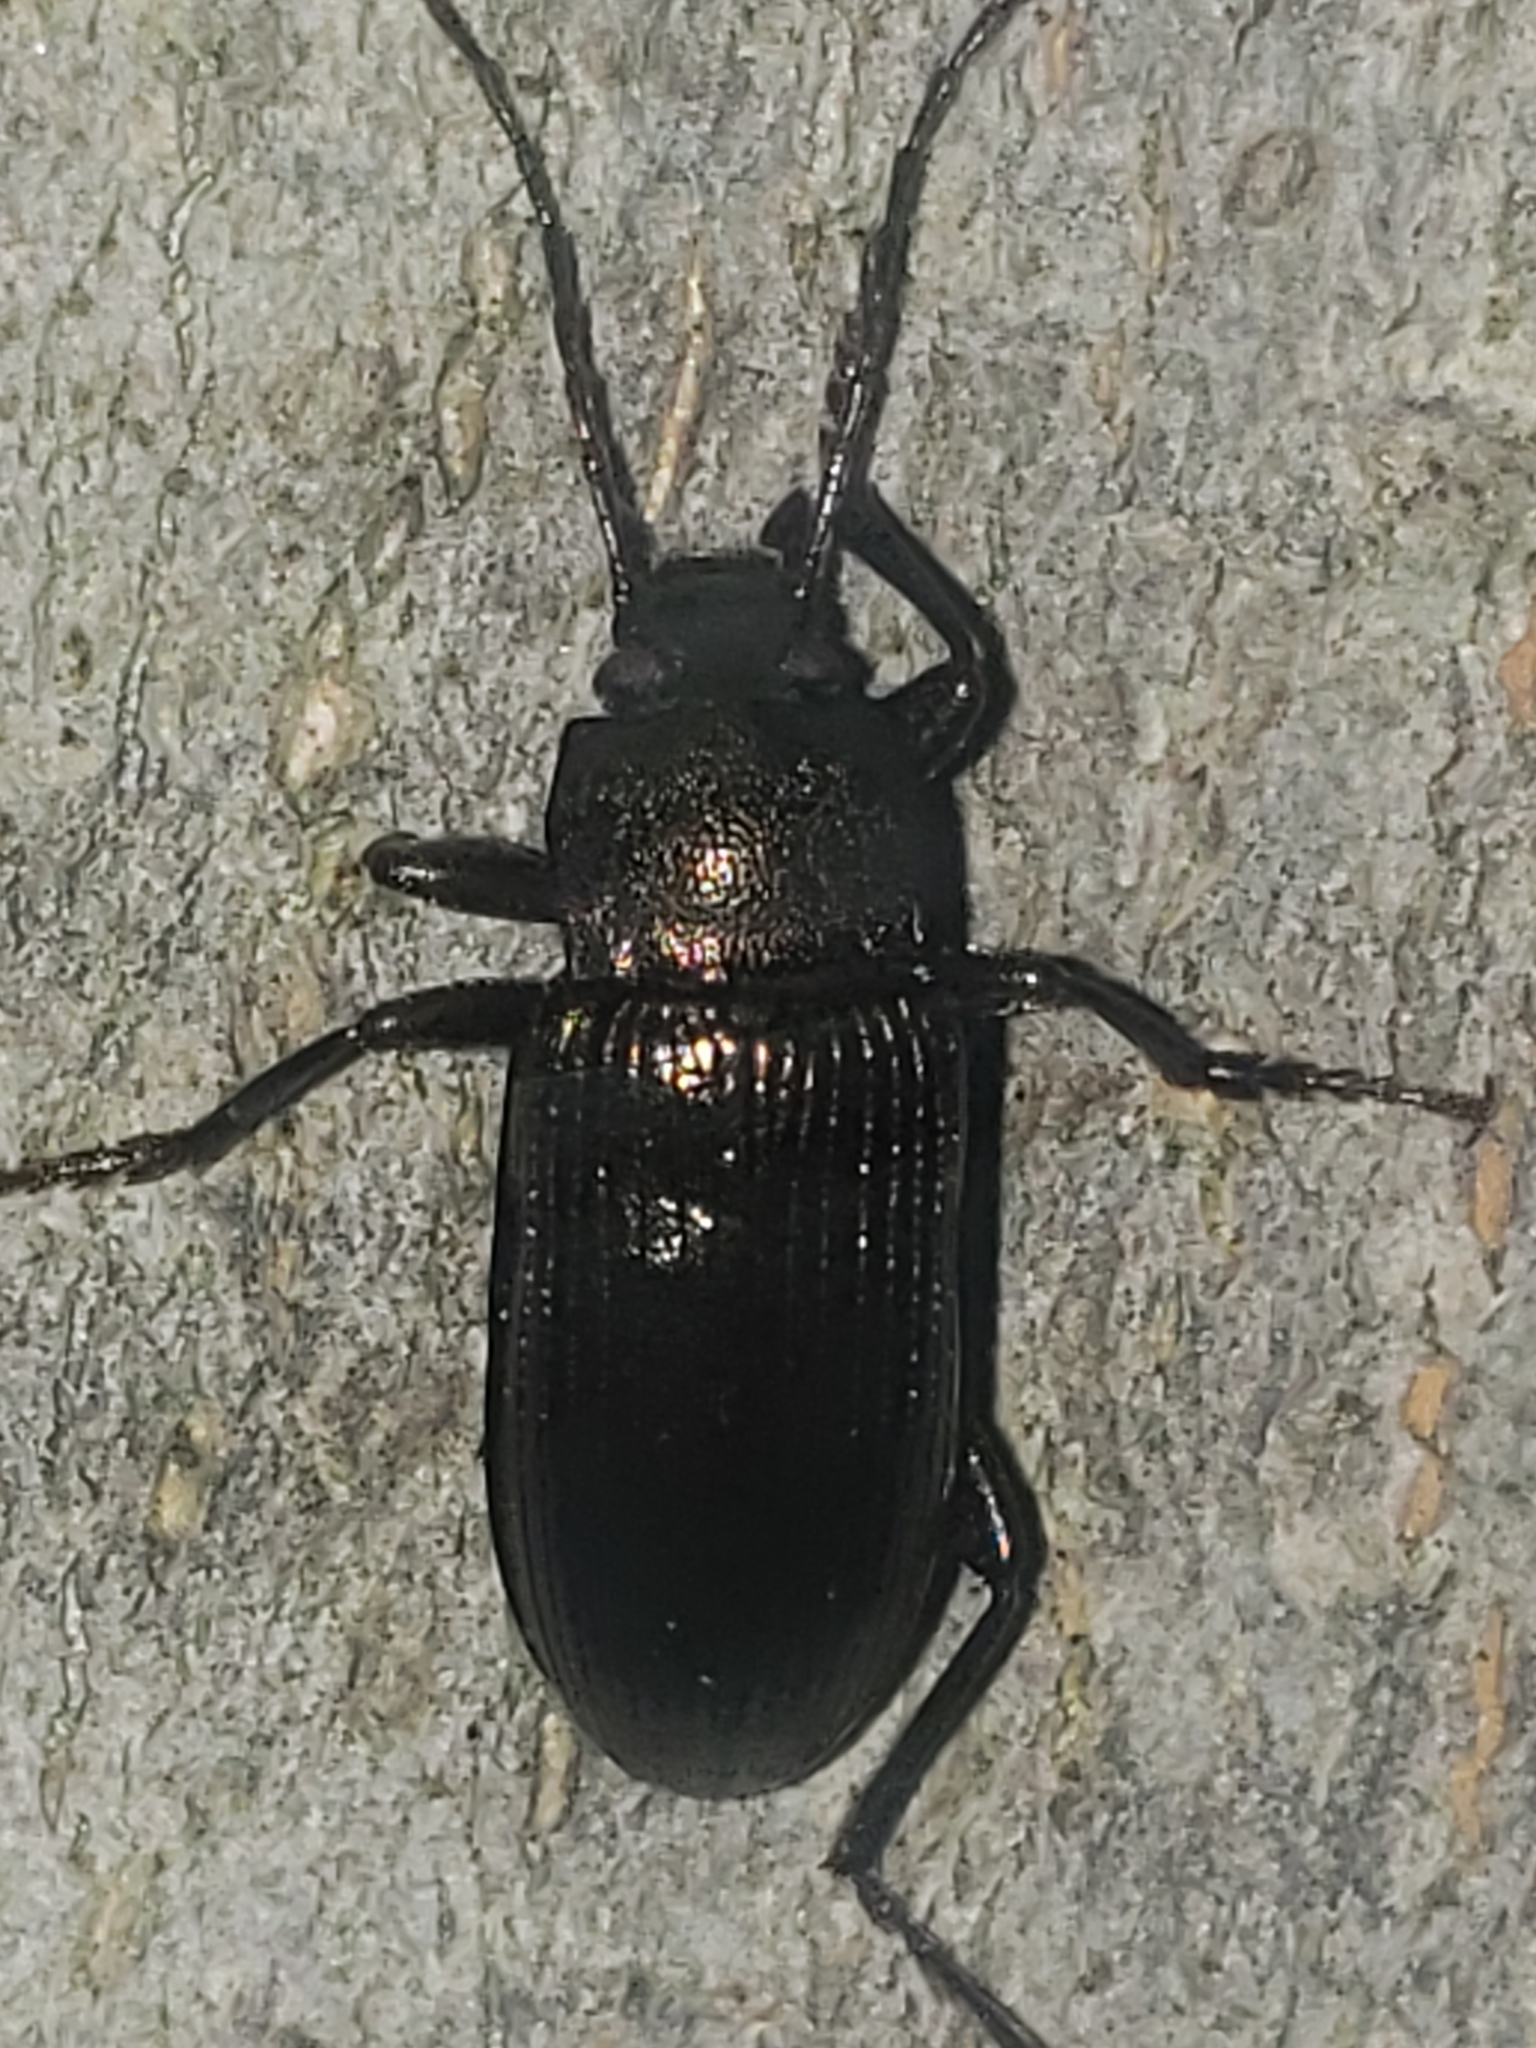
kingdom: Animalia
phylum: Arthropoda
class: Insecta
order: Coleoptera
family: Tenebrionidae
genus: Tarpela
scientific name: Tarpela undulata
